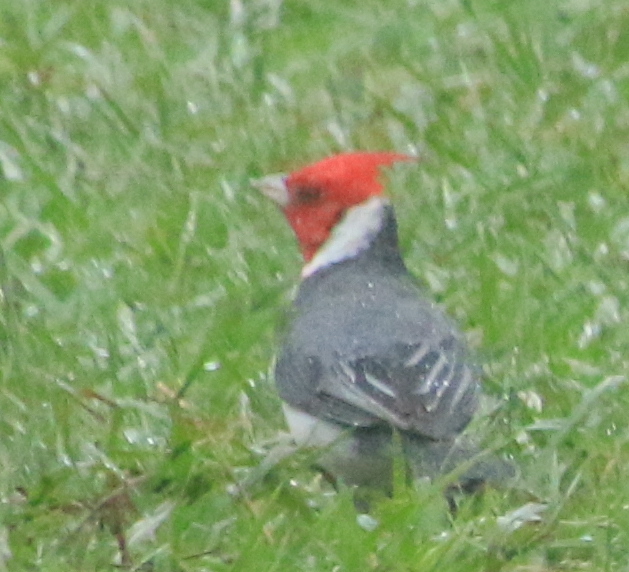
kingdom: Animalia
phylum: Chordata
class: Aves
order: Passeriformes
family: Thraupidae
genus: Paroaria
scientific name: Paroaria coronata
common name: Red-crested cardinal
